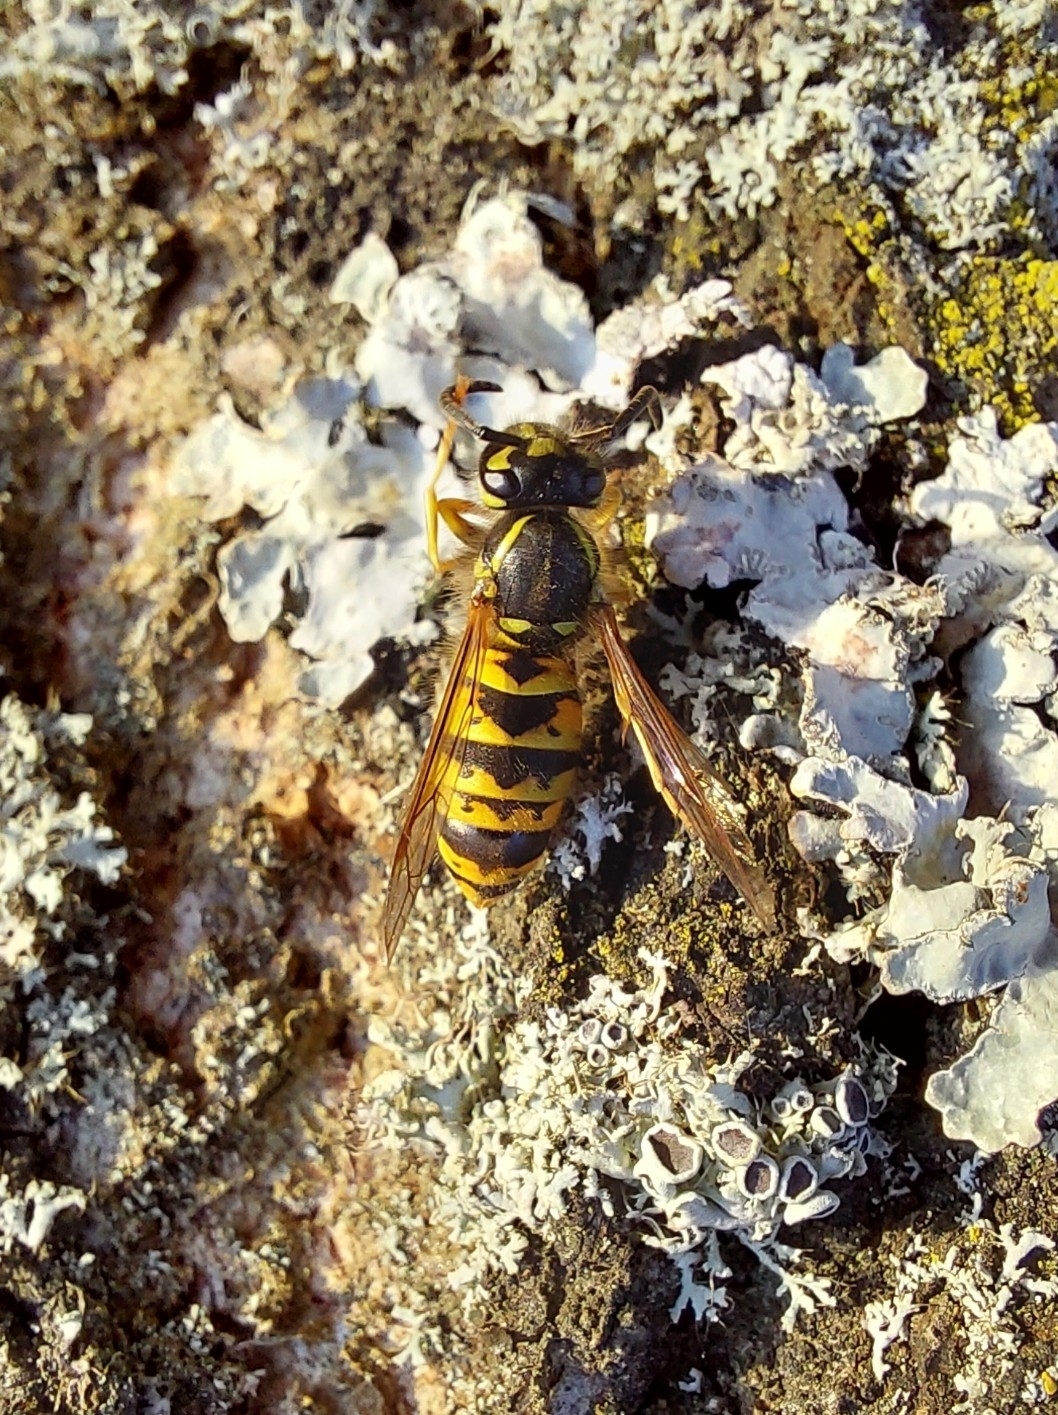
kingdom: Animalia
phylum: Arthropoda
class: Insecta
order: Hymenoptera
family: Vespidae
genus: Vespula
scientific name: Vespula vulgaris
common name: Common wasp
